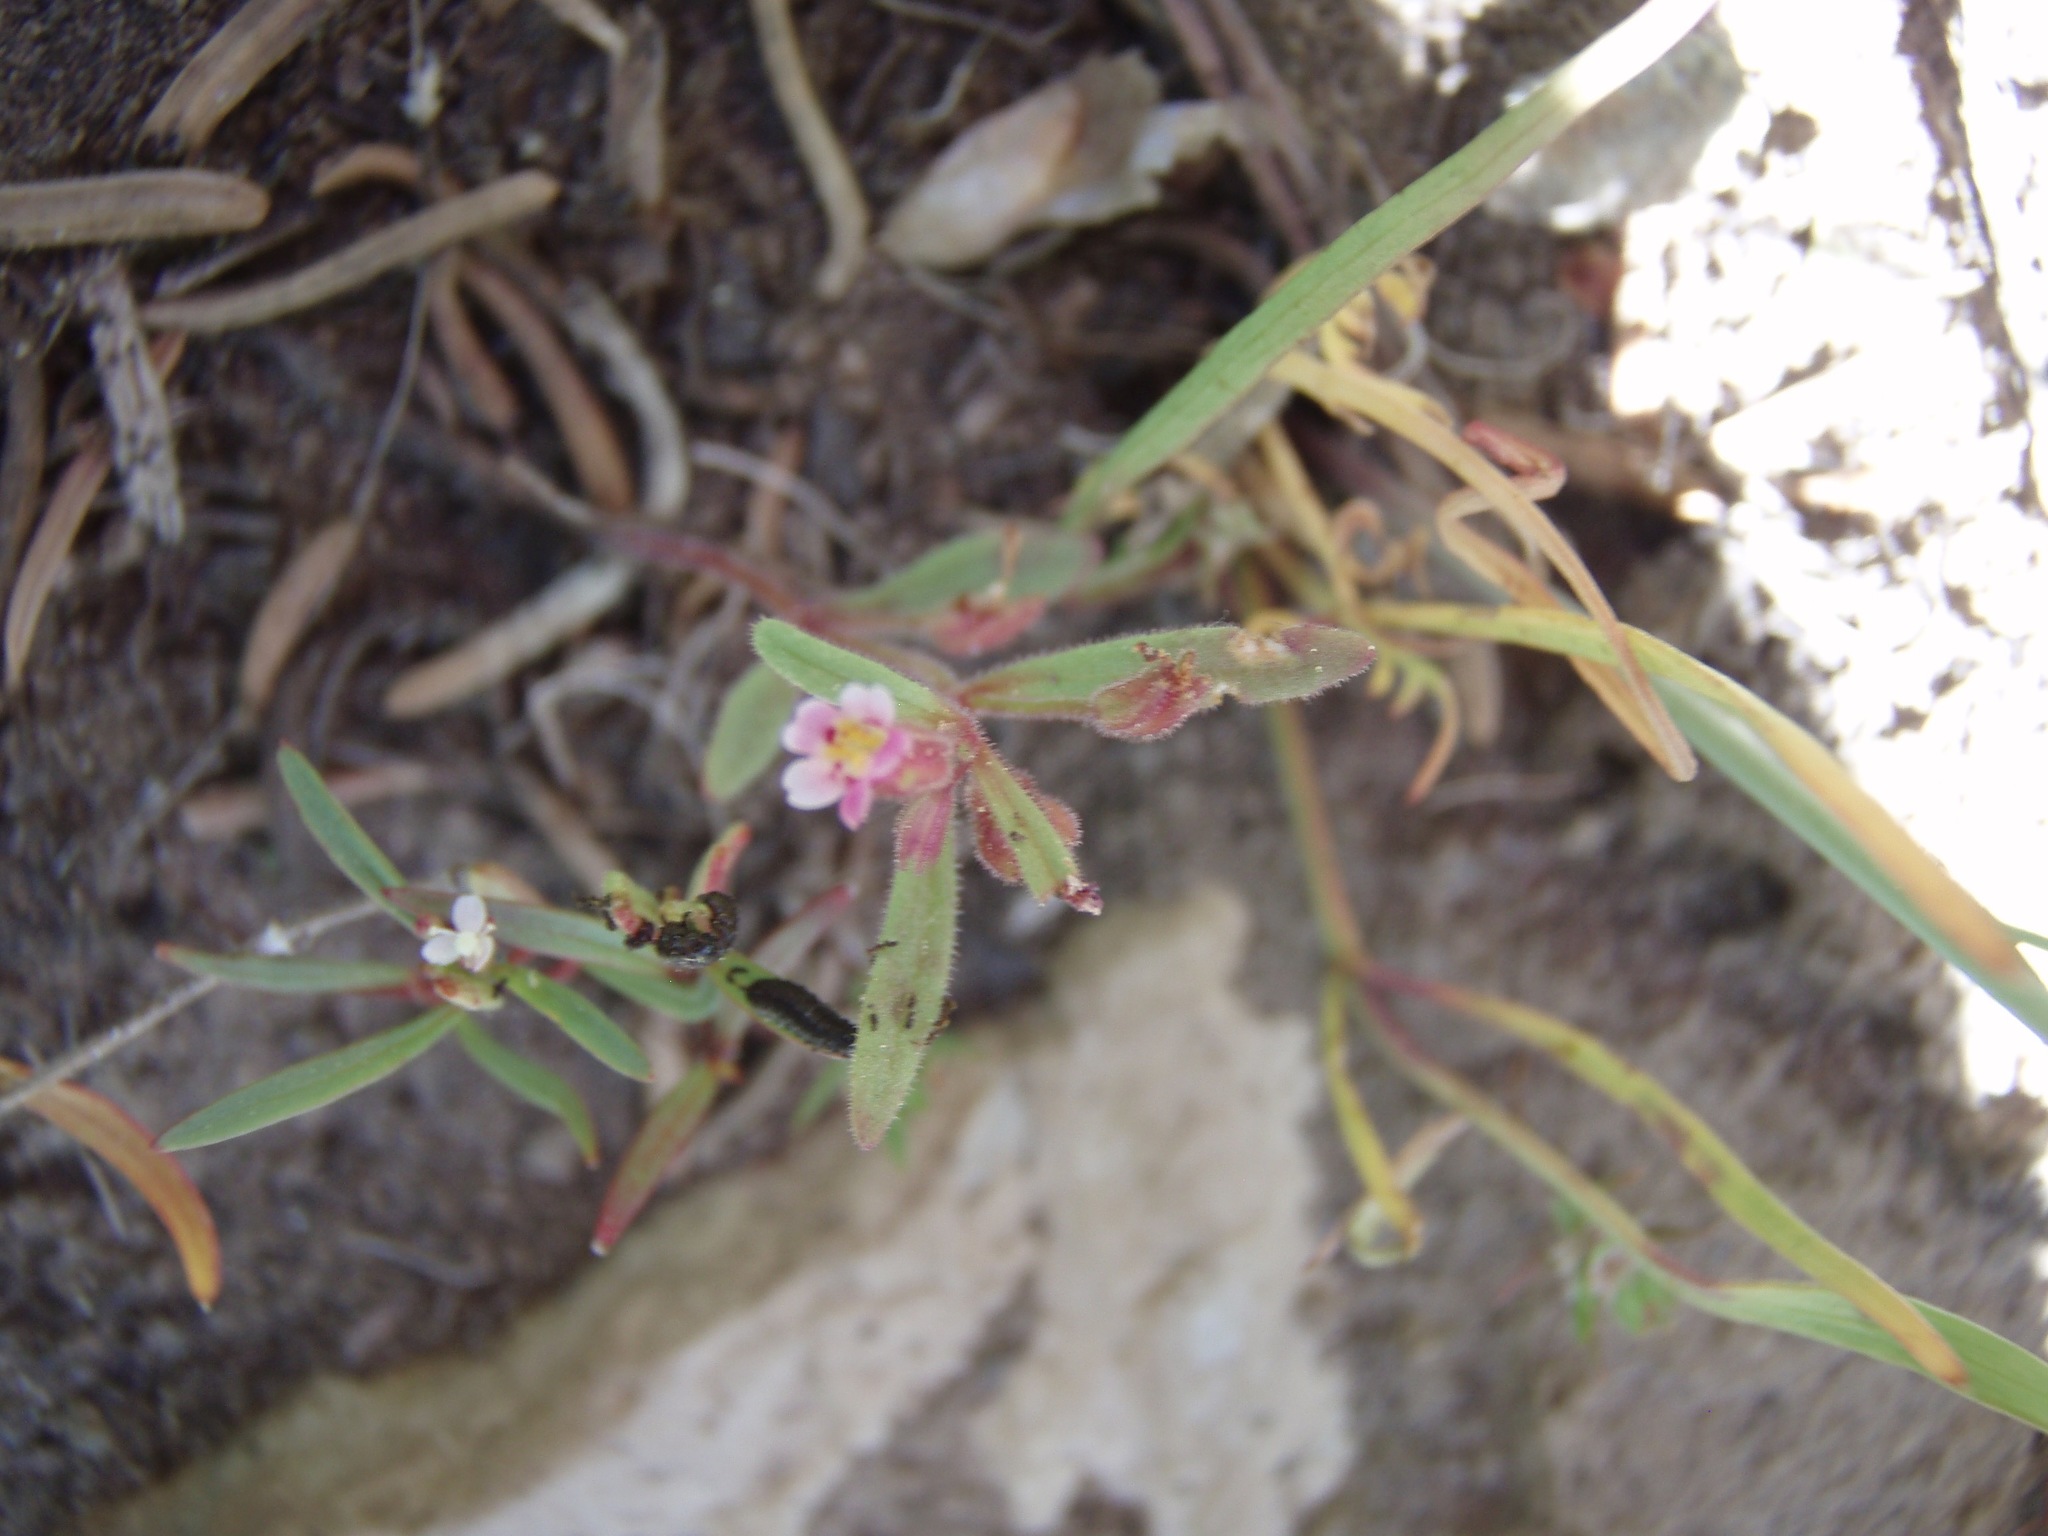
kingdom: Plantae
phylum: Tracheophyta
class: Magnoliopsida
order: Lamiales
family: Phrymaceae
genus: Erythranthe
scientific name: Erythranthe breweri
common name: Brewer's monkeyflower
